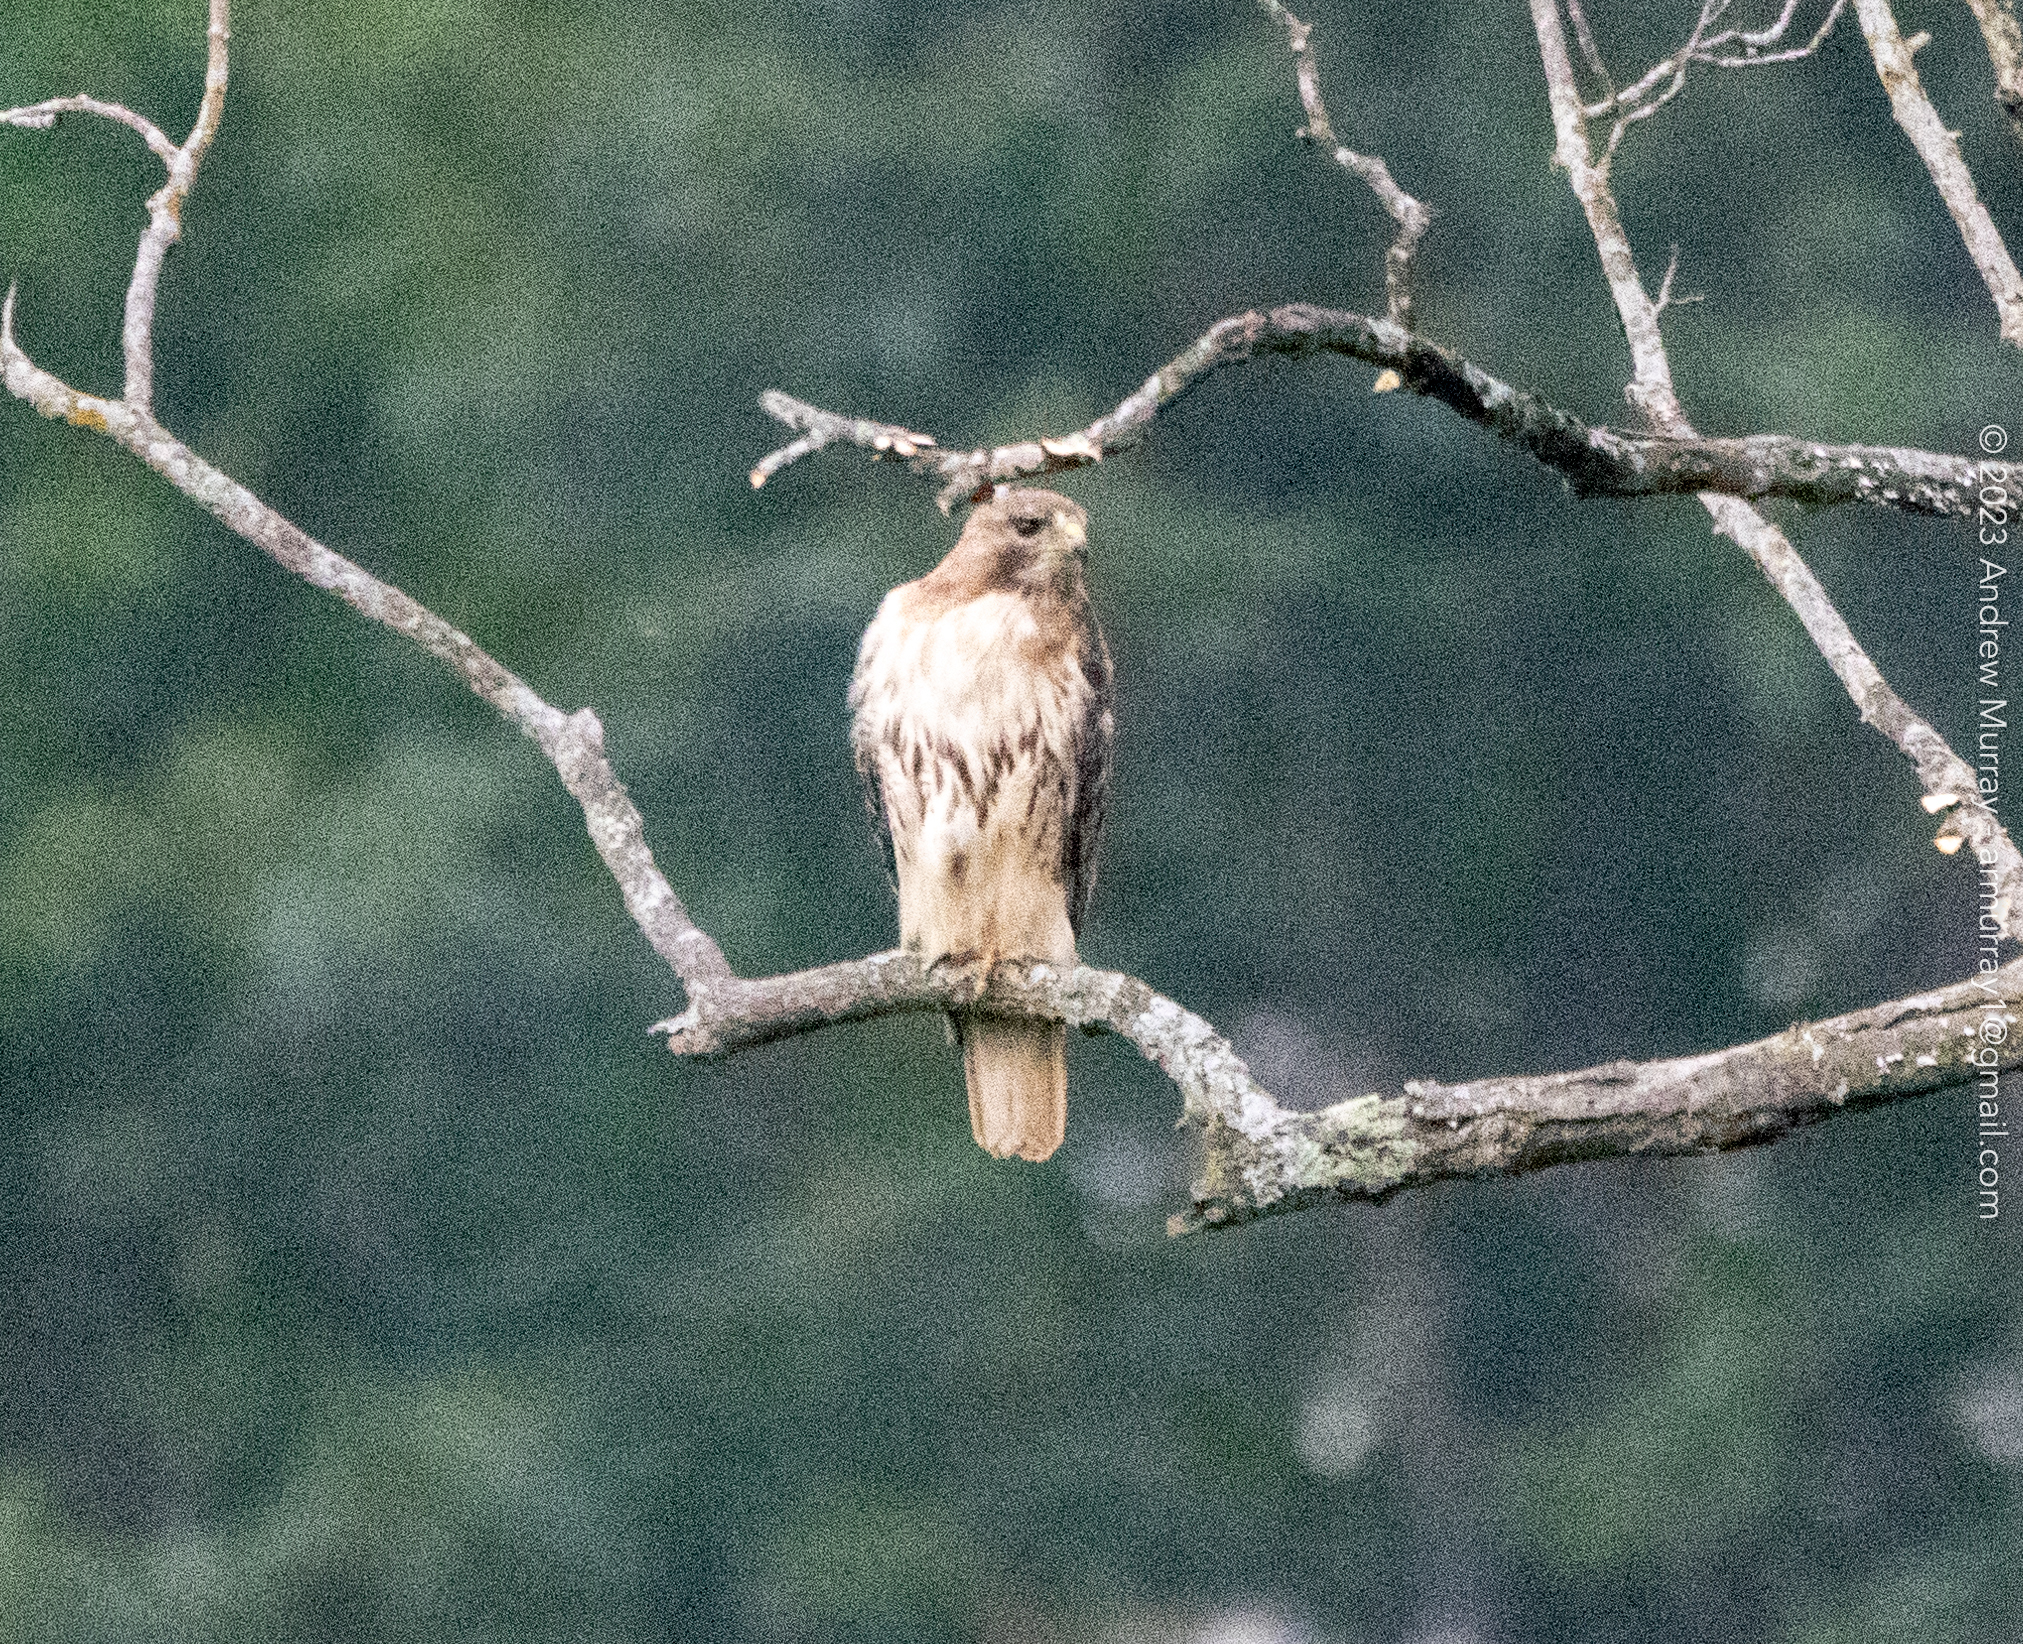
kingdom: Animalia
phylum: Chordata
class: Aves
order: Accipitriformes
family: Accipitridae
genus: Buteo
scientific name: Buteo jamaicensis
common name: Red-tailed hawk
